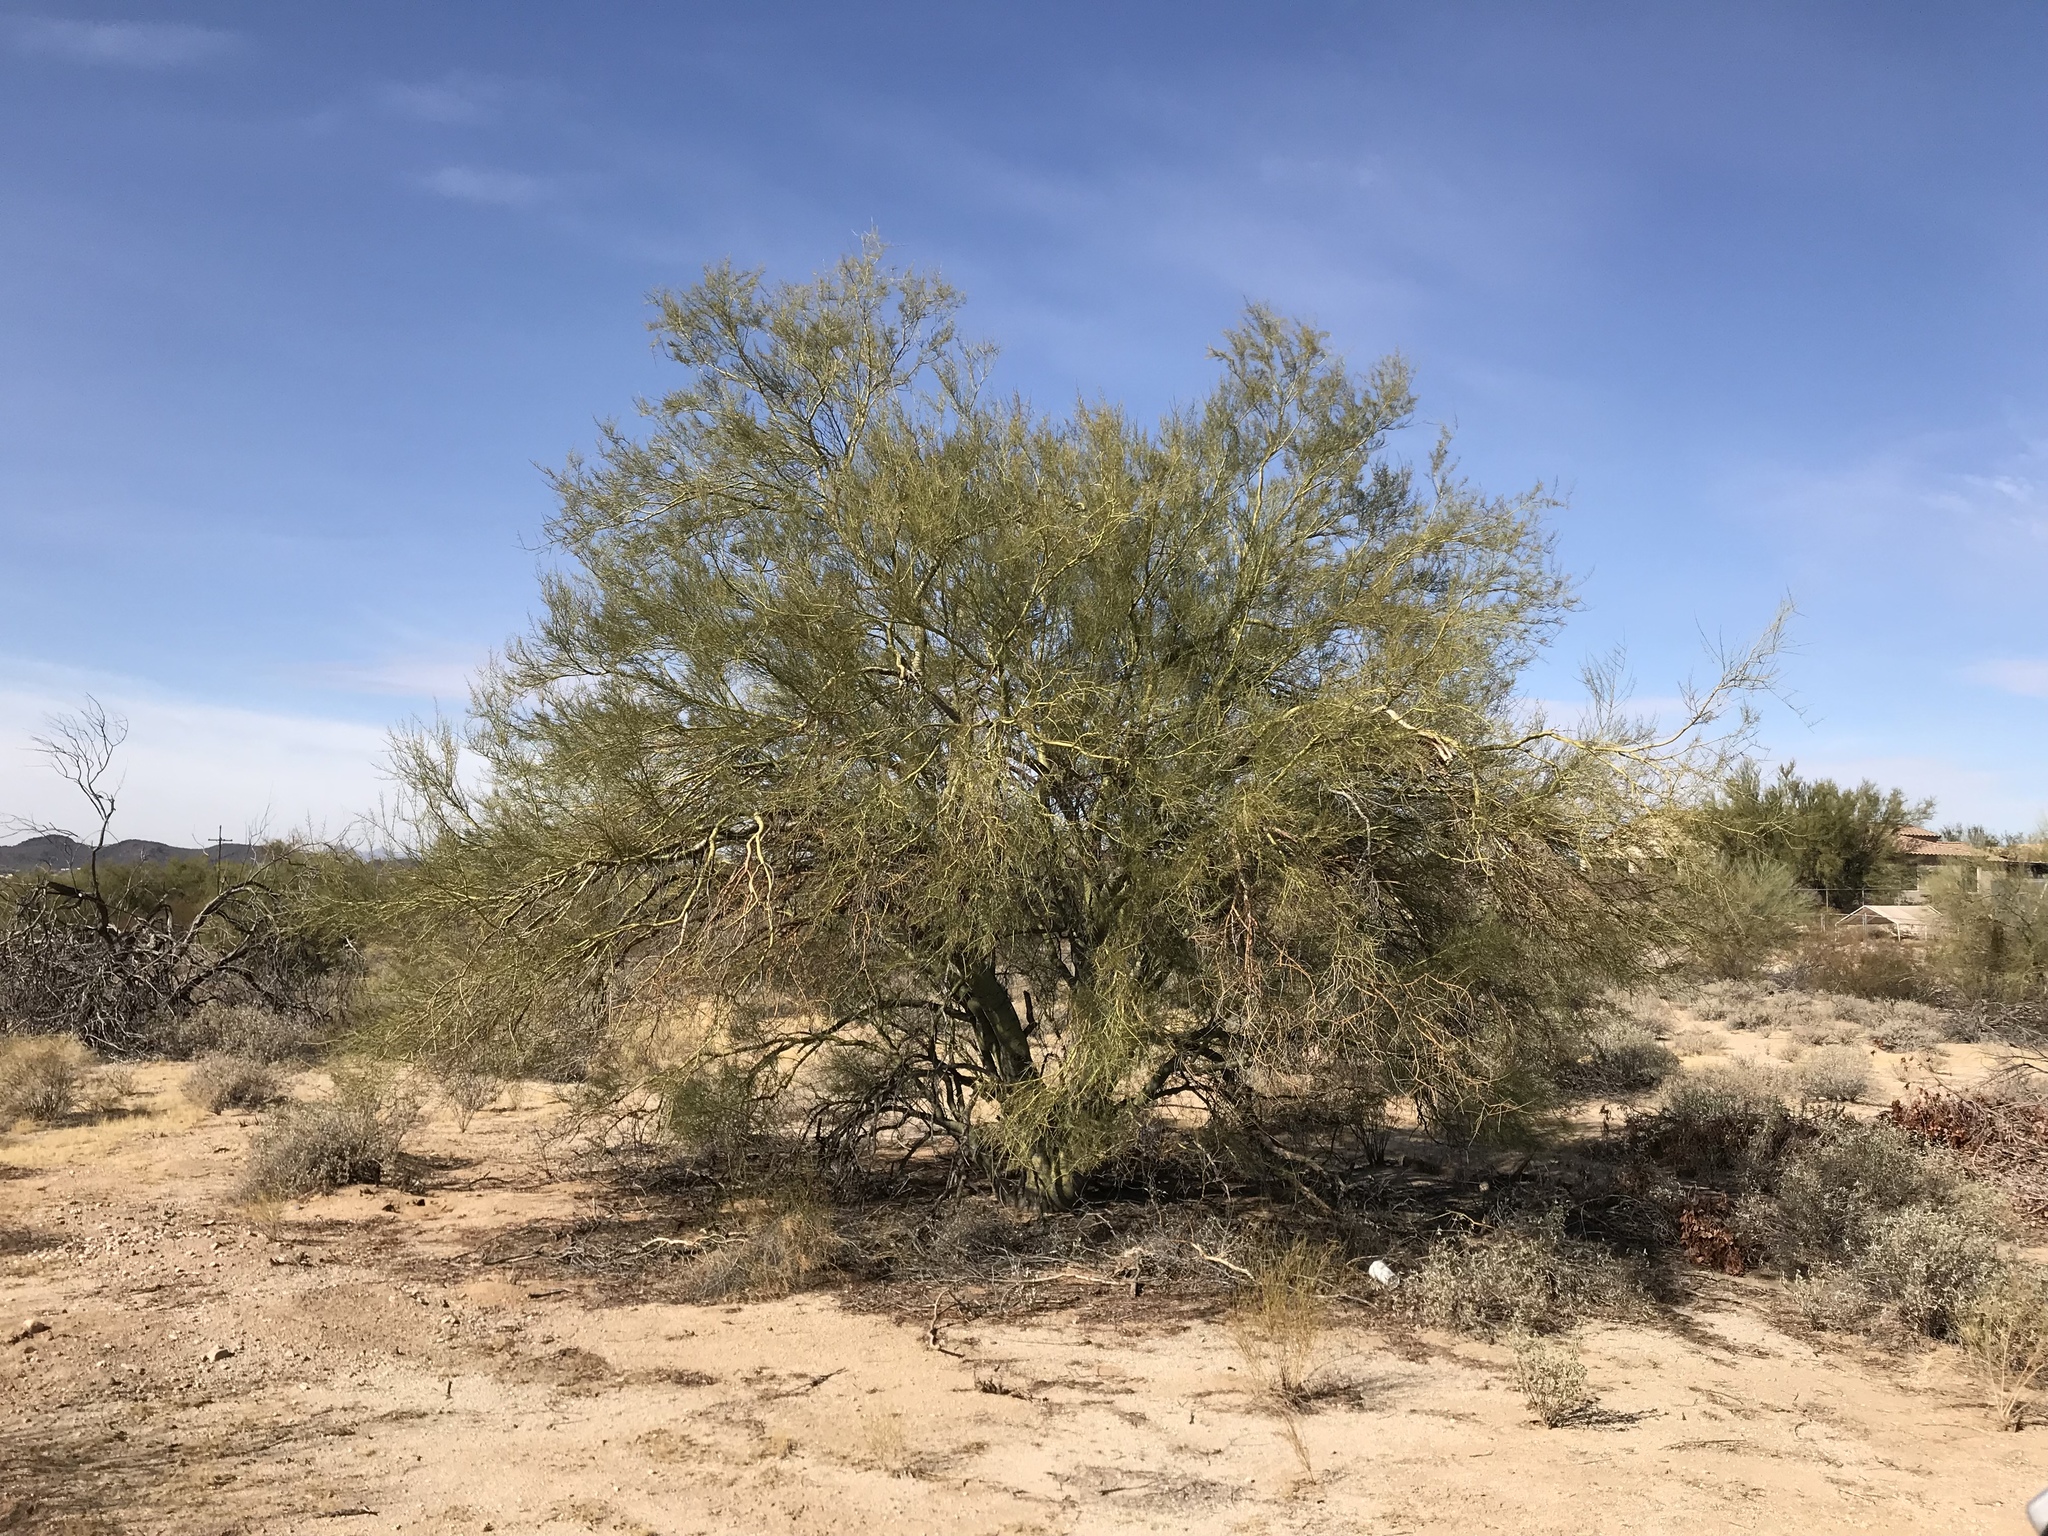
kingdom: Plantae
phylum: Tracheophyta
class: Magnoliopsida
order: Fabales
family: Fabaceae
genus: Olneya
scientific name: Olneya tesota
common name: Desert ironwood
